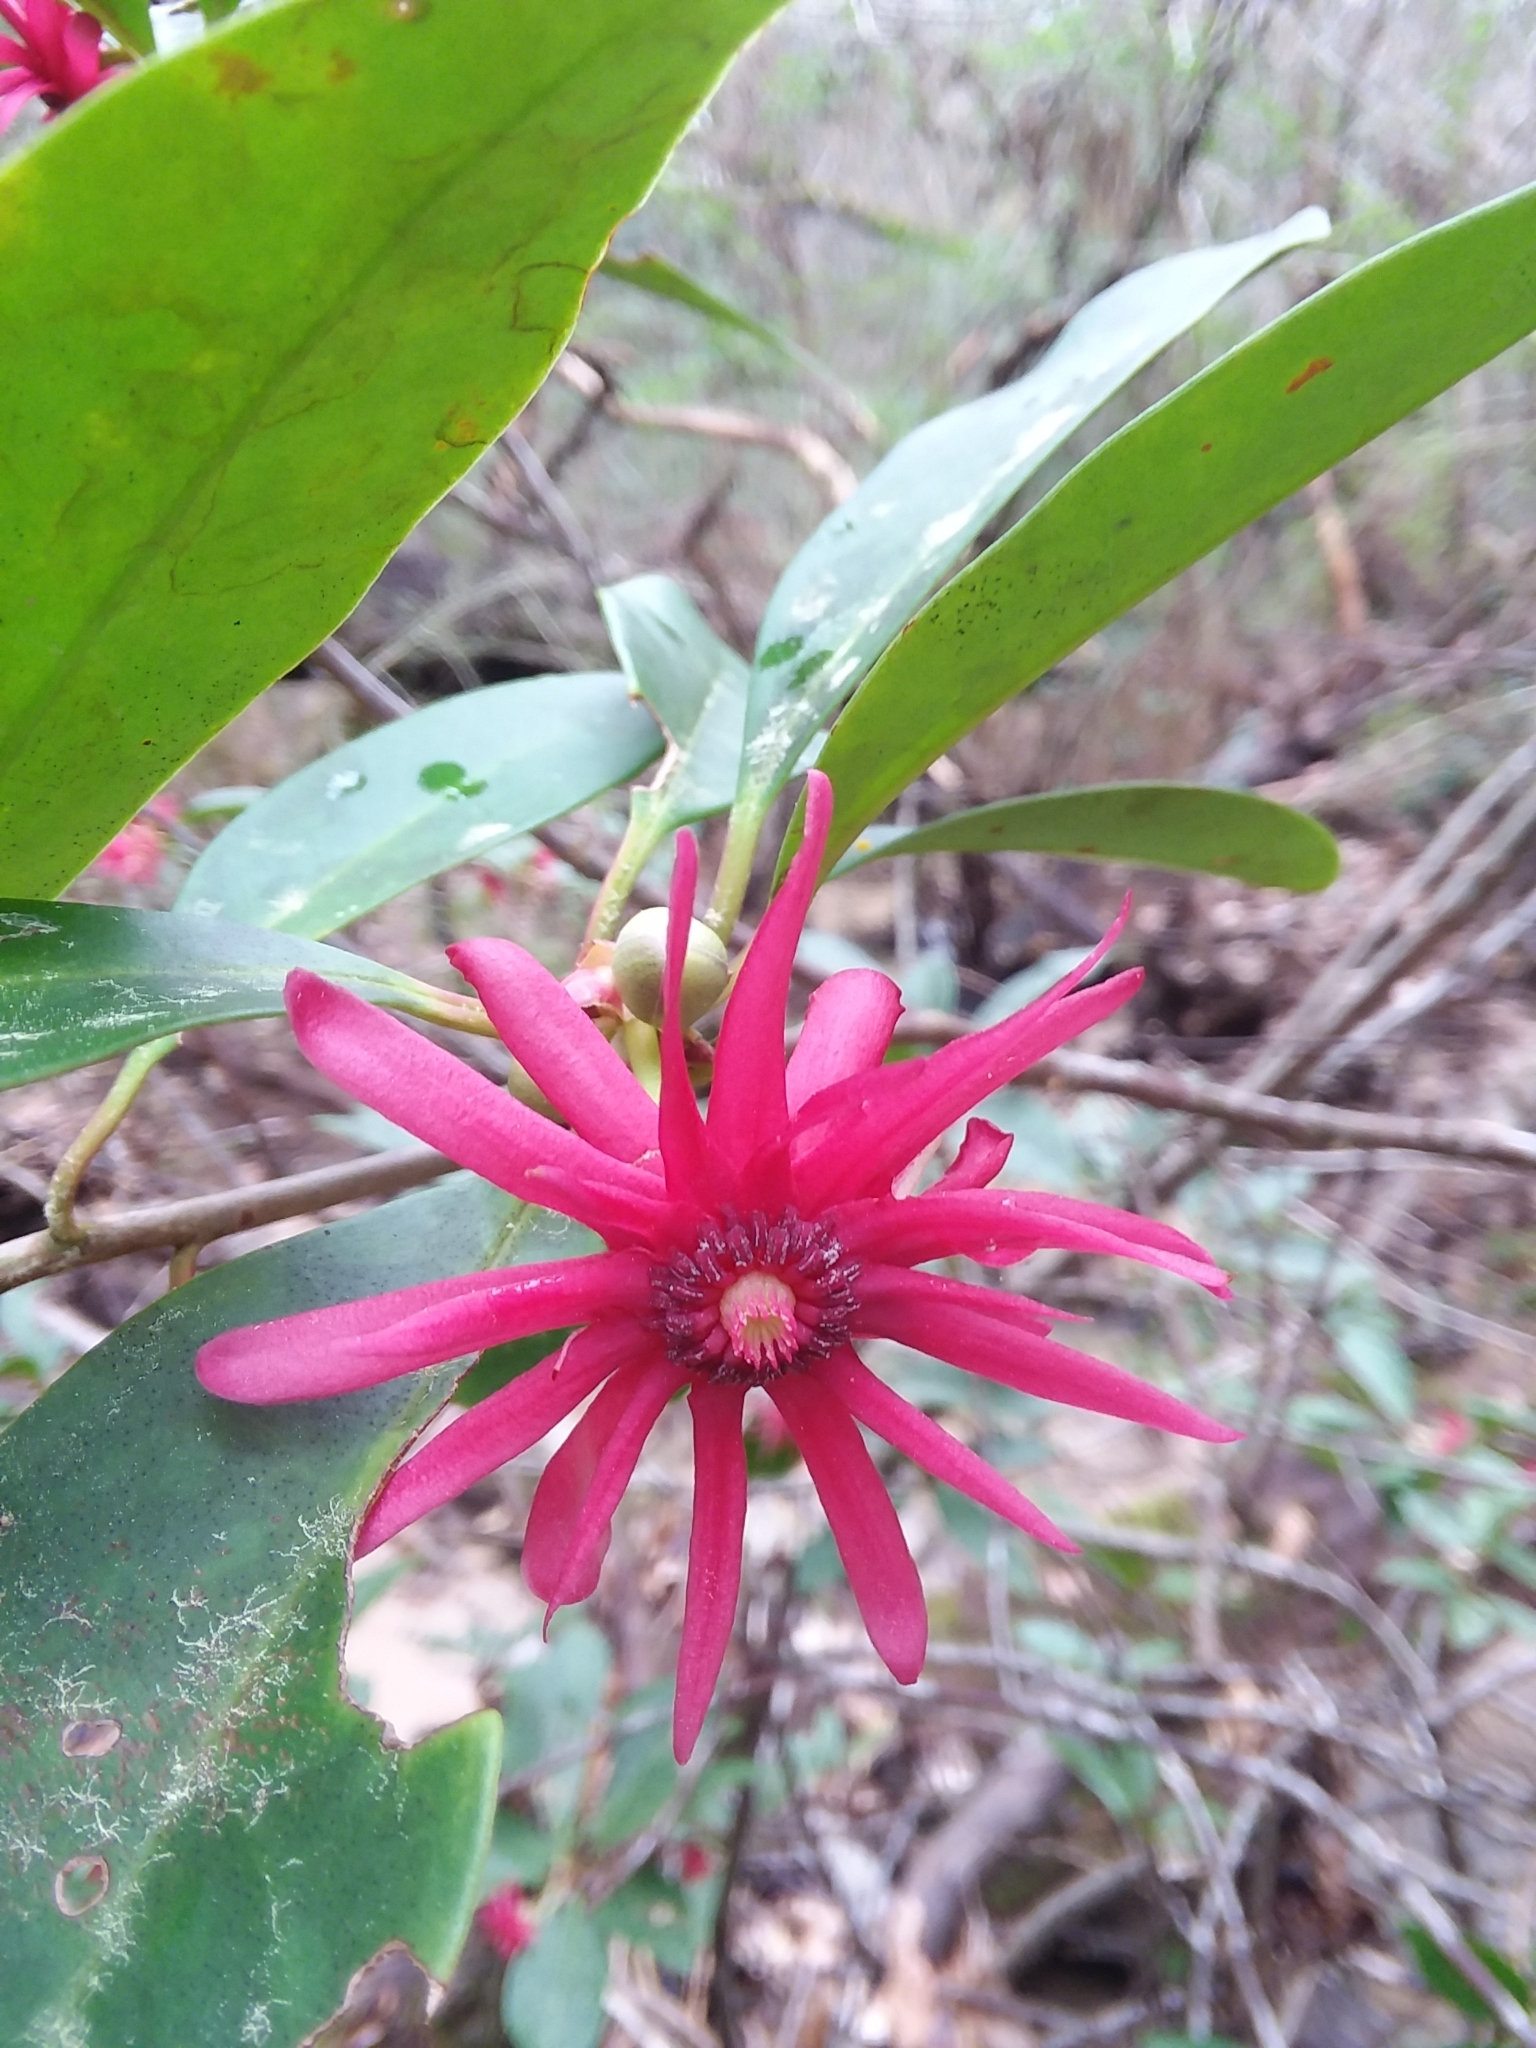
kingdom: Plantae
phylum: Tracheophyta
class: Magnoliopsida
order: Austrobaileyales
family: Schisandraceae
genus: Illicium
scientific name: Illicium floridanum
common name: Florida anisetree
